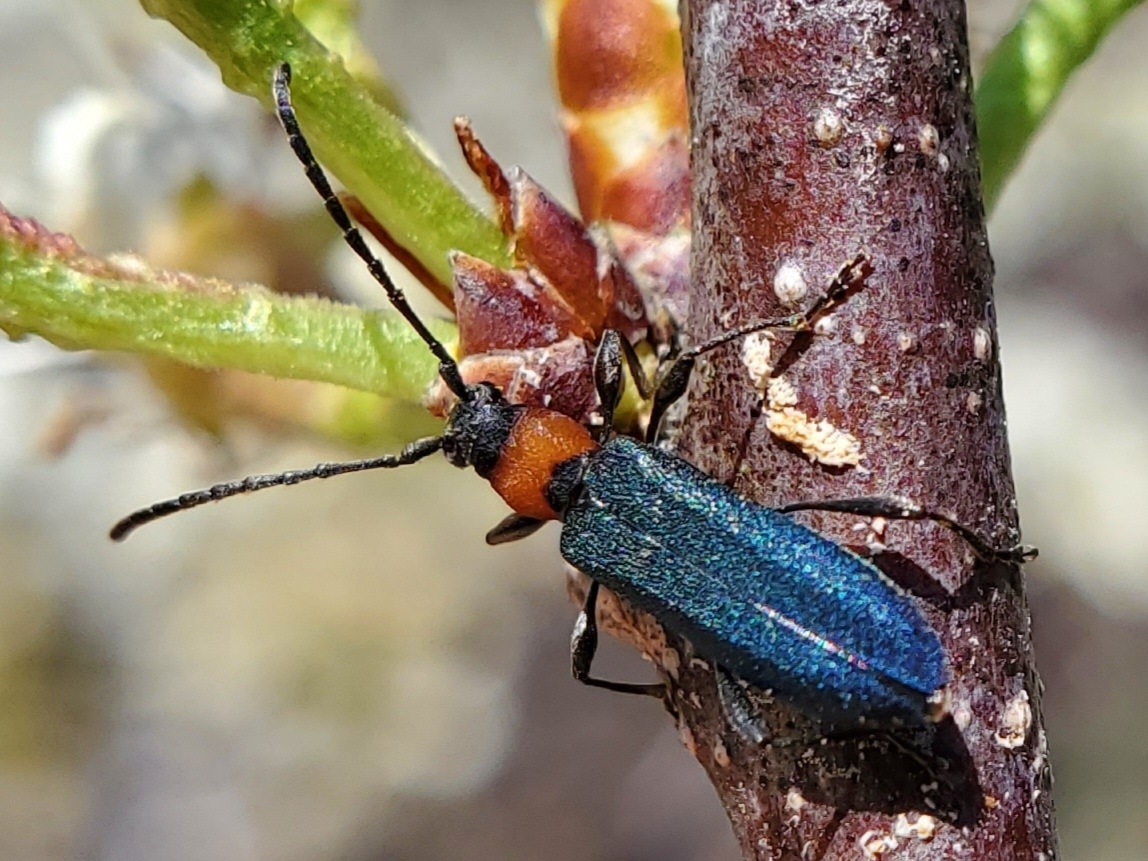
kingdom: Animalia
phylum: Arthropoda
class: Insecta
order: Coleoptera
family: Cerambycidae
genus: Dere
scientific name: Dere thoracica
